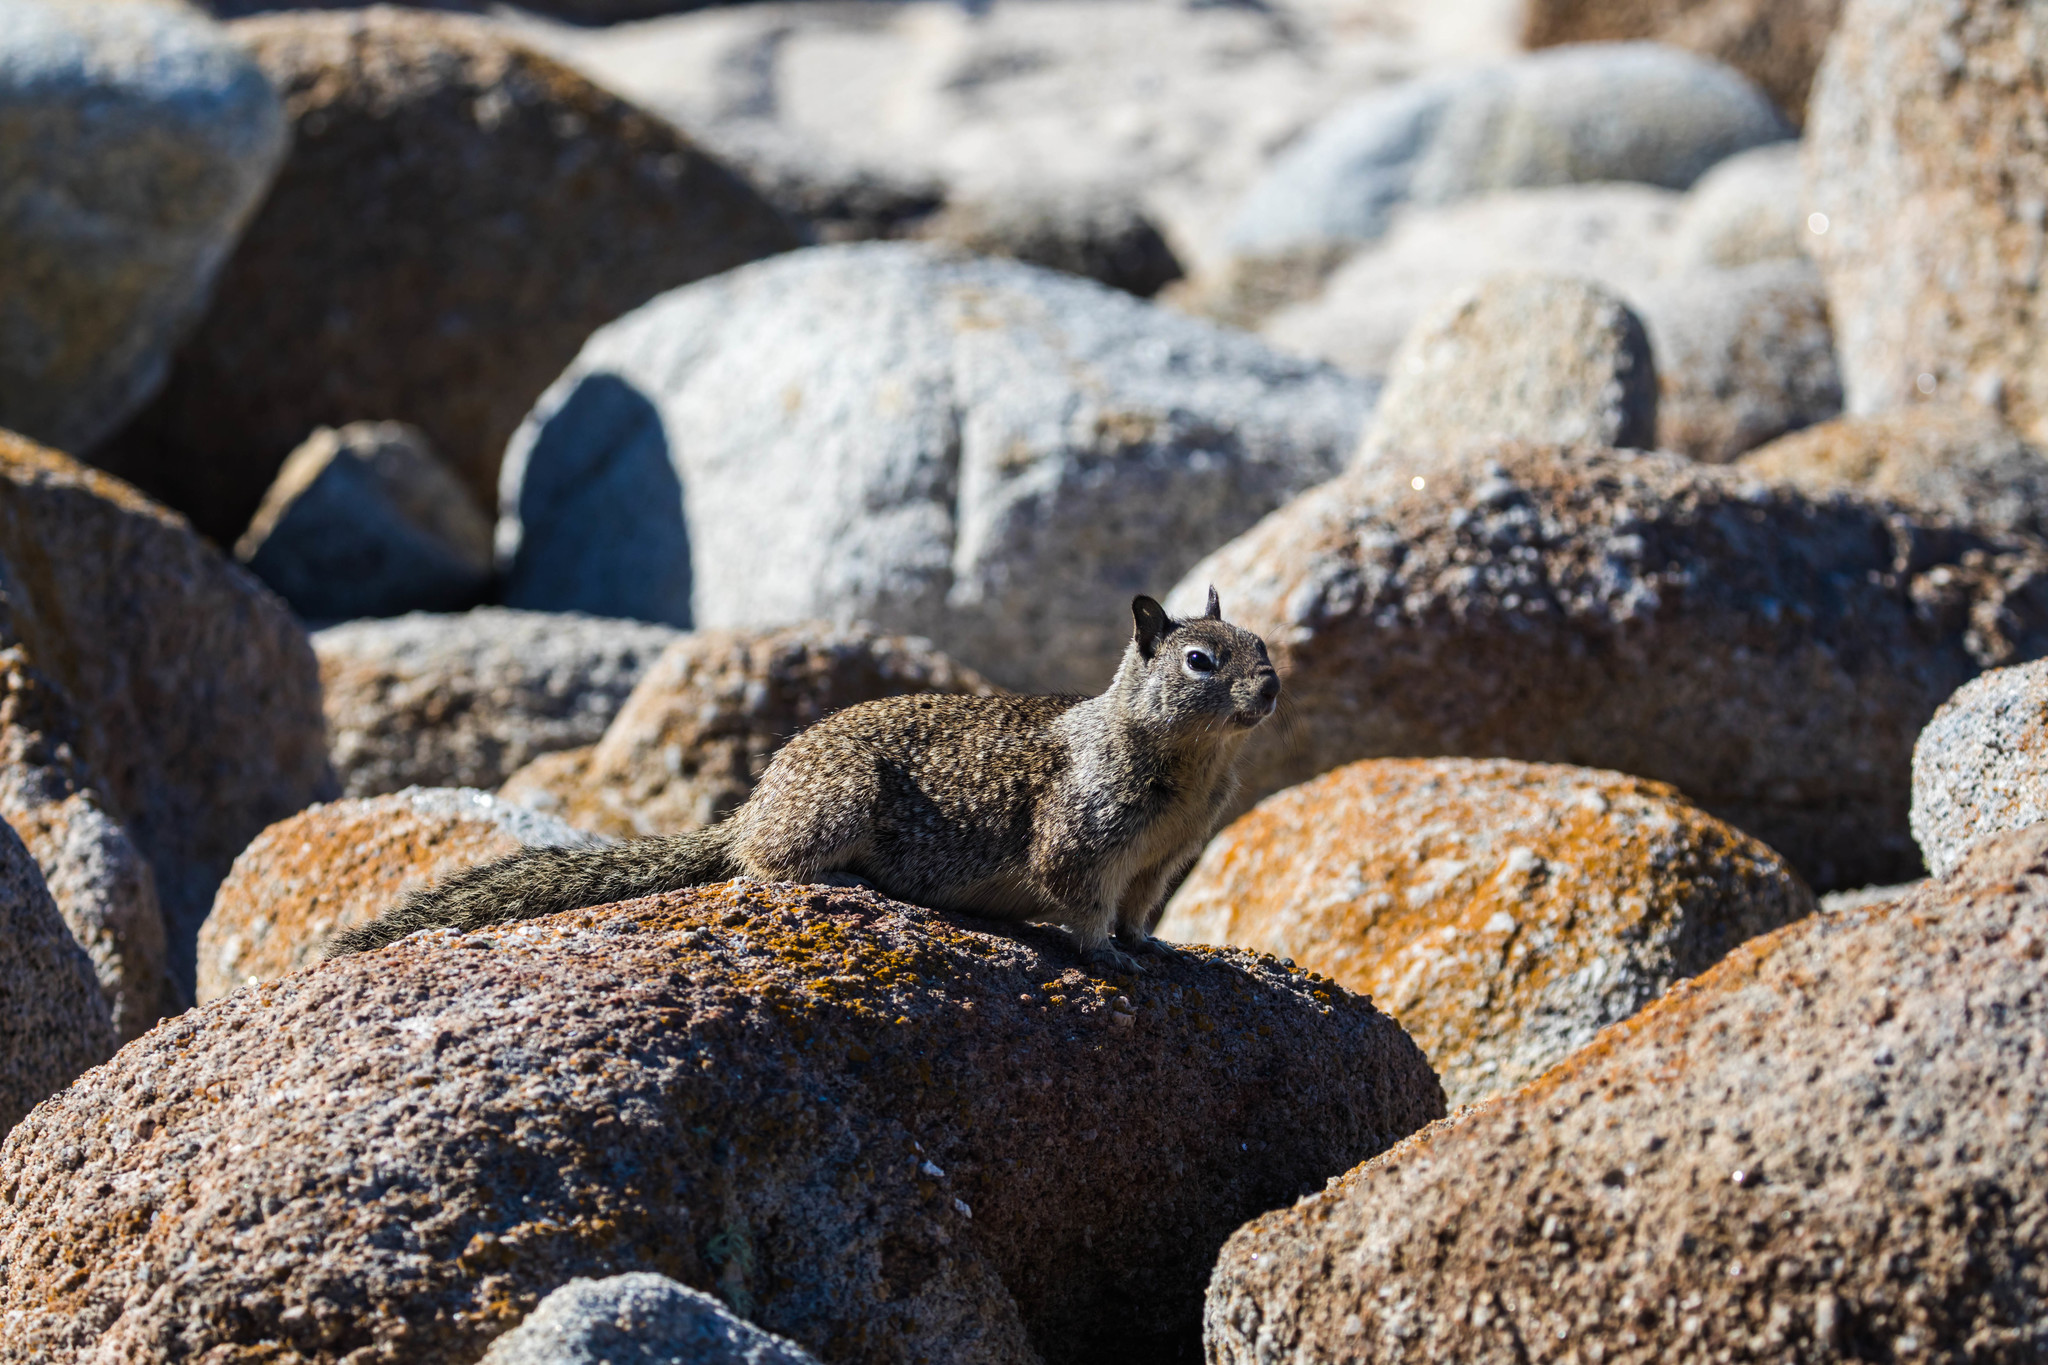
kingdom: Animalia
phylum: Chordata
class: Mammalia
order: Rodentia
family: Sciuridae
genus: Otospermophilus
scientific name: Otospermophilus beecheyi
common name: California ground squirrel
